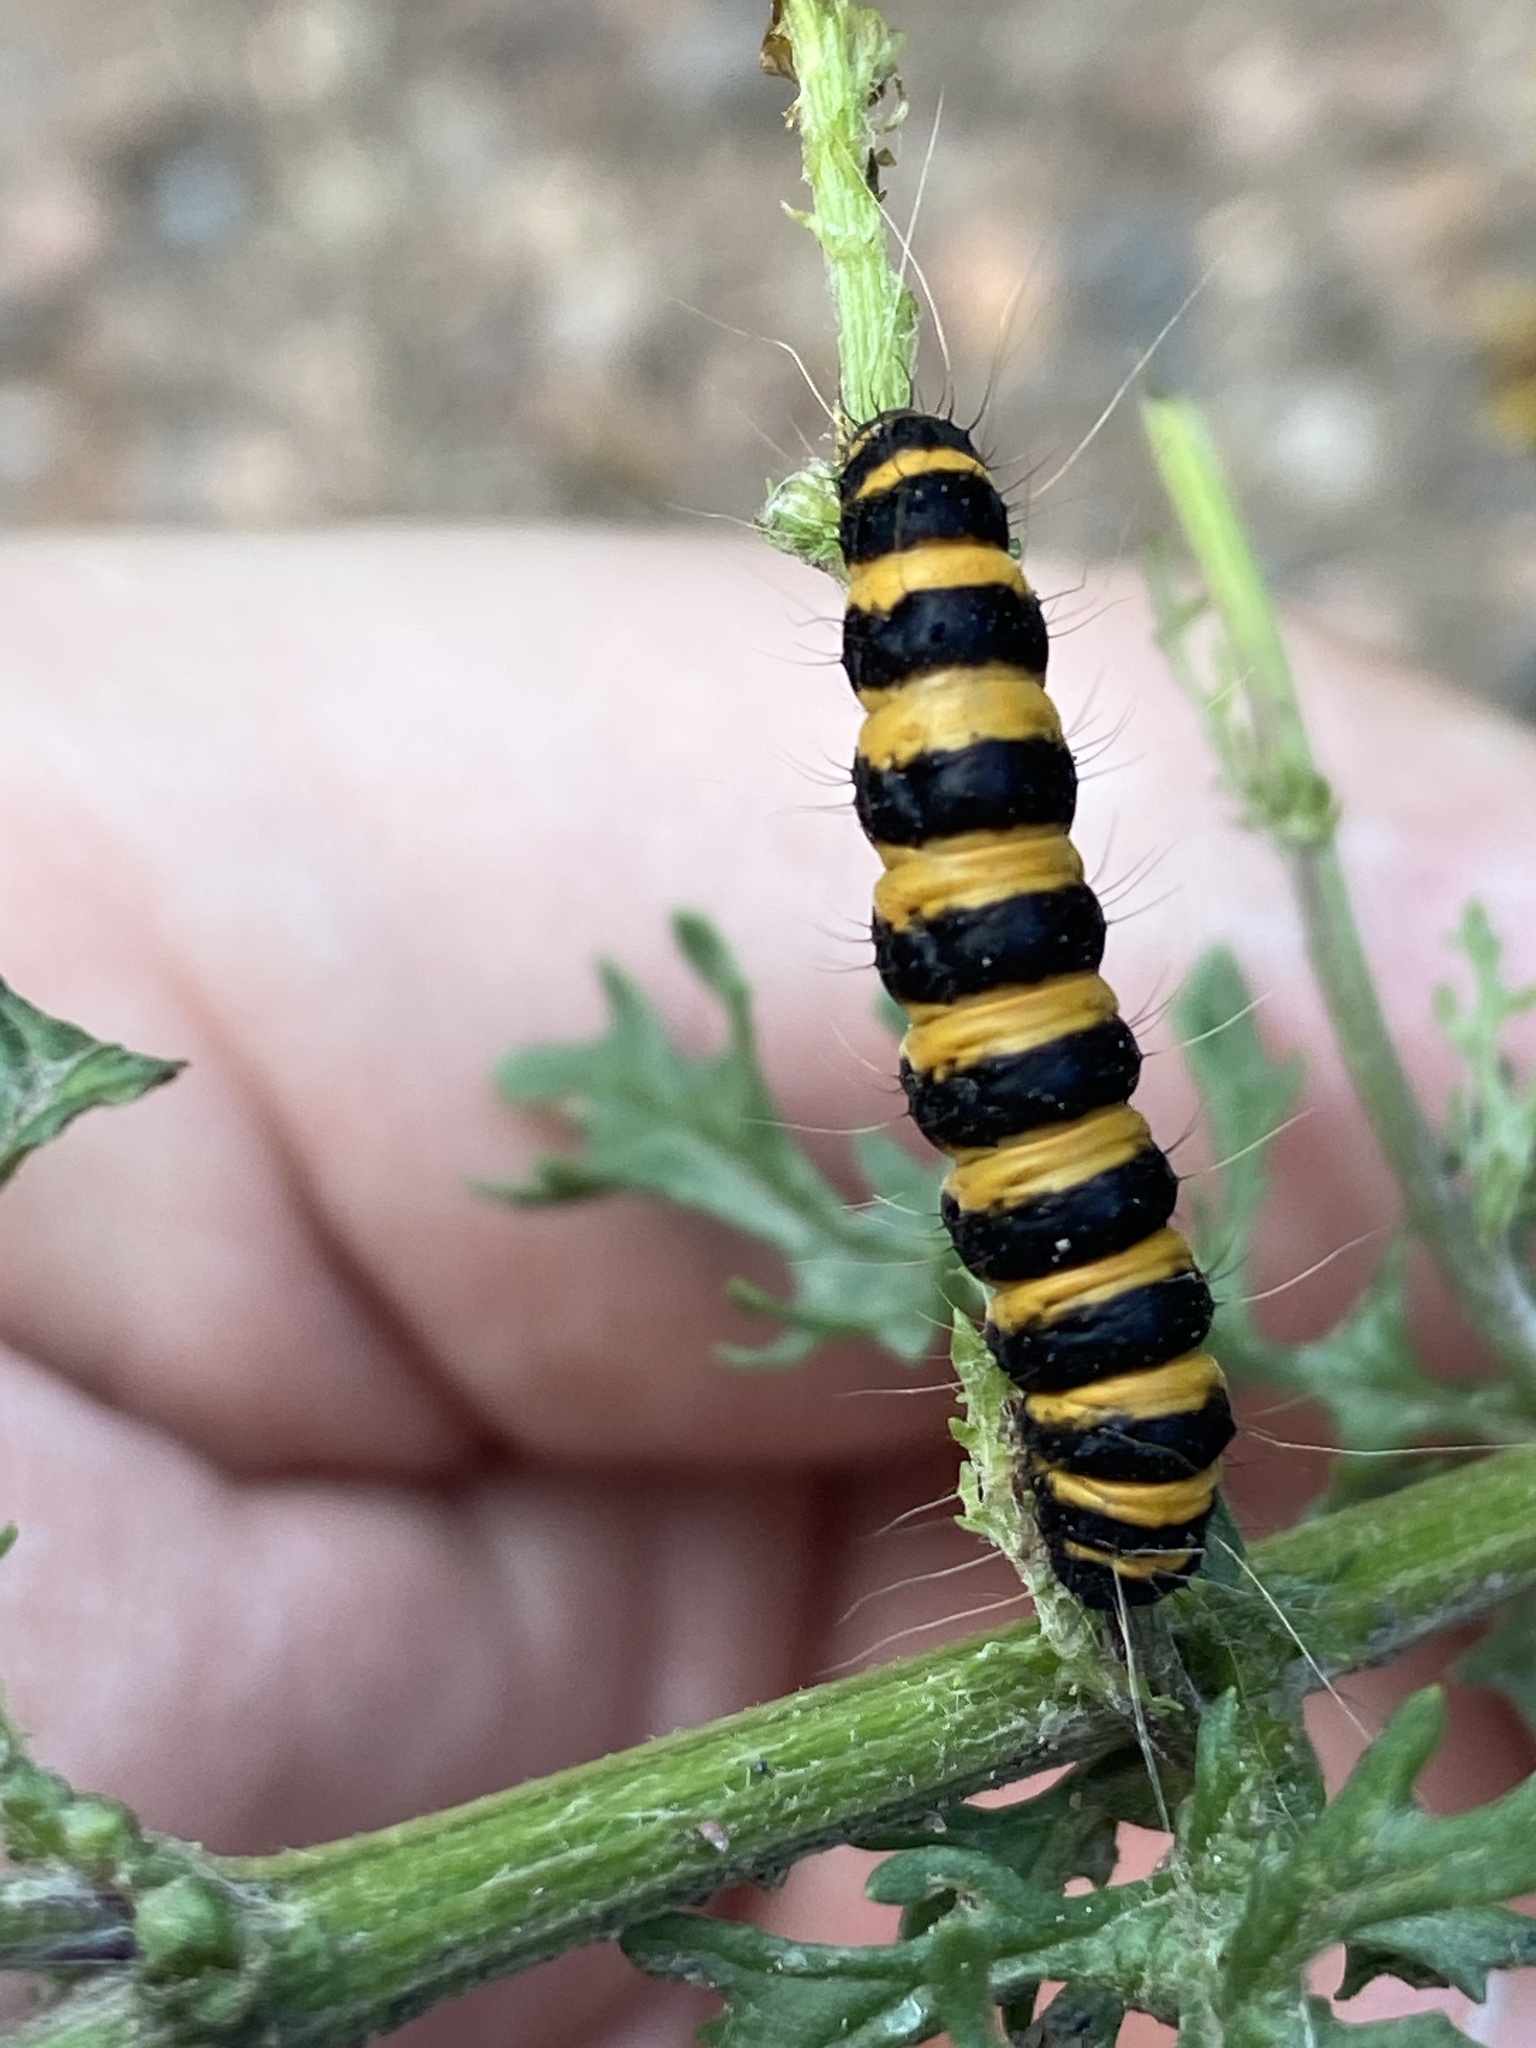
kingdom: Animalia
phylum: Arthropoda
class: Insecta
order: Lepidoptera
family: Erebidae
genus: Tyria
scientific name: Tyria jacobaeae
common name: Cinnabar
